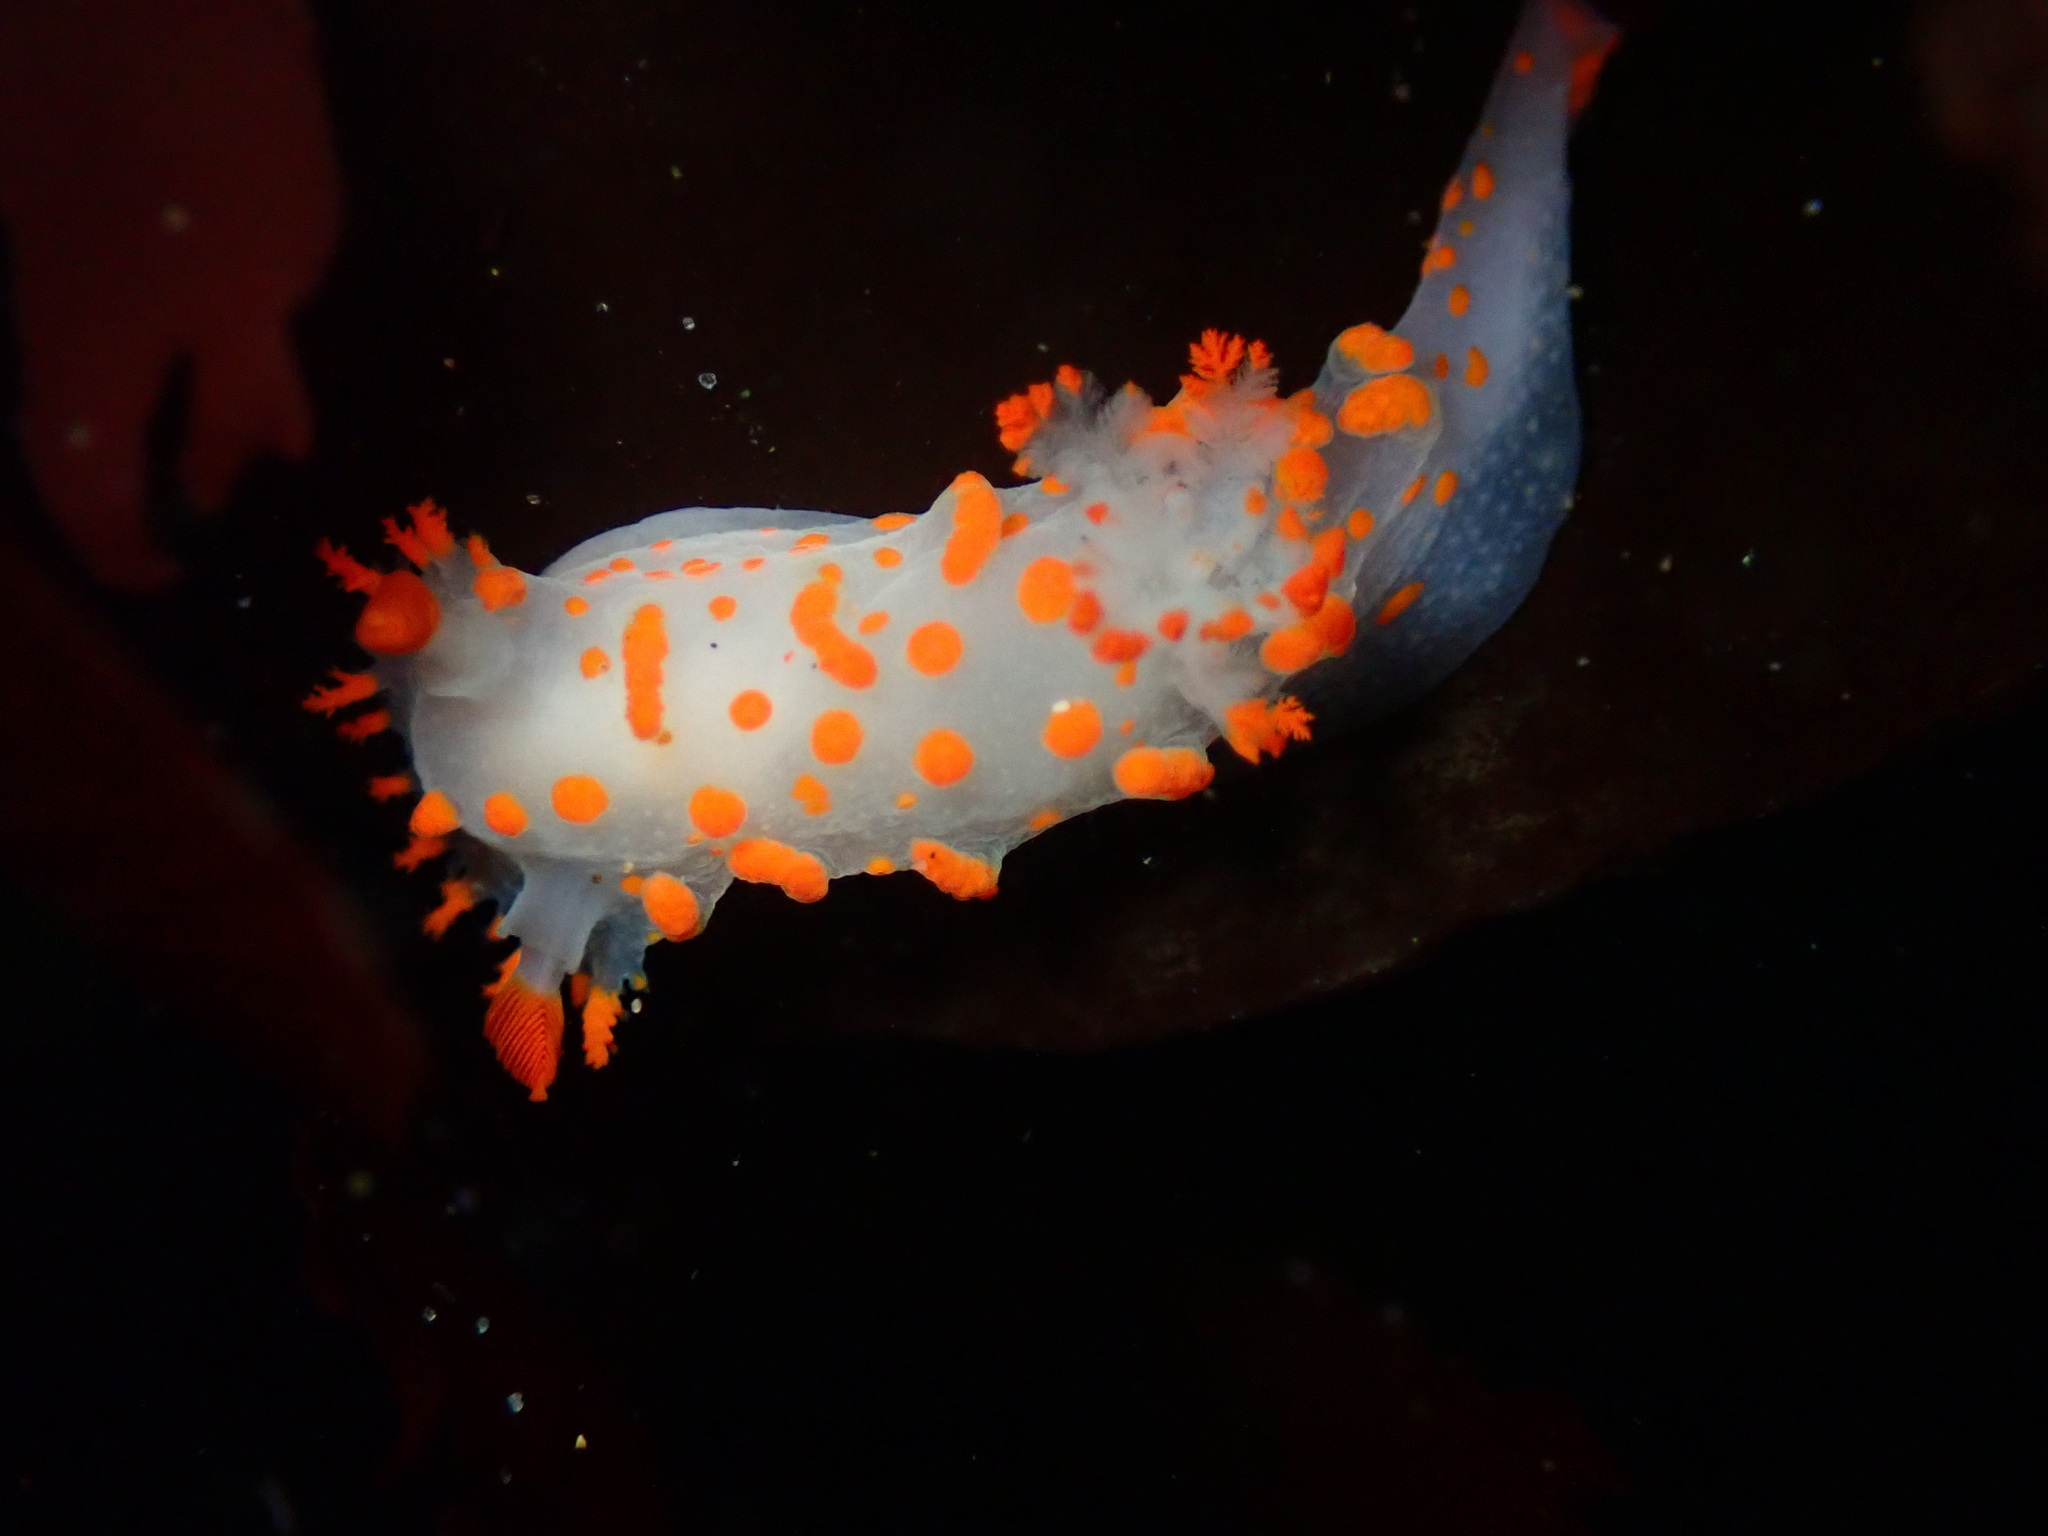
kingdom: Animalia
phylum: Mollusca
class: Gastropoda
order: Nudibranchia
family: Polyceridae
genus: Triopha
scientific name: Triopha catalinae
